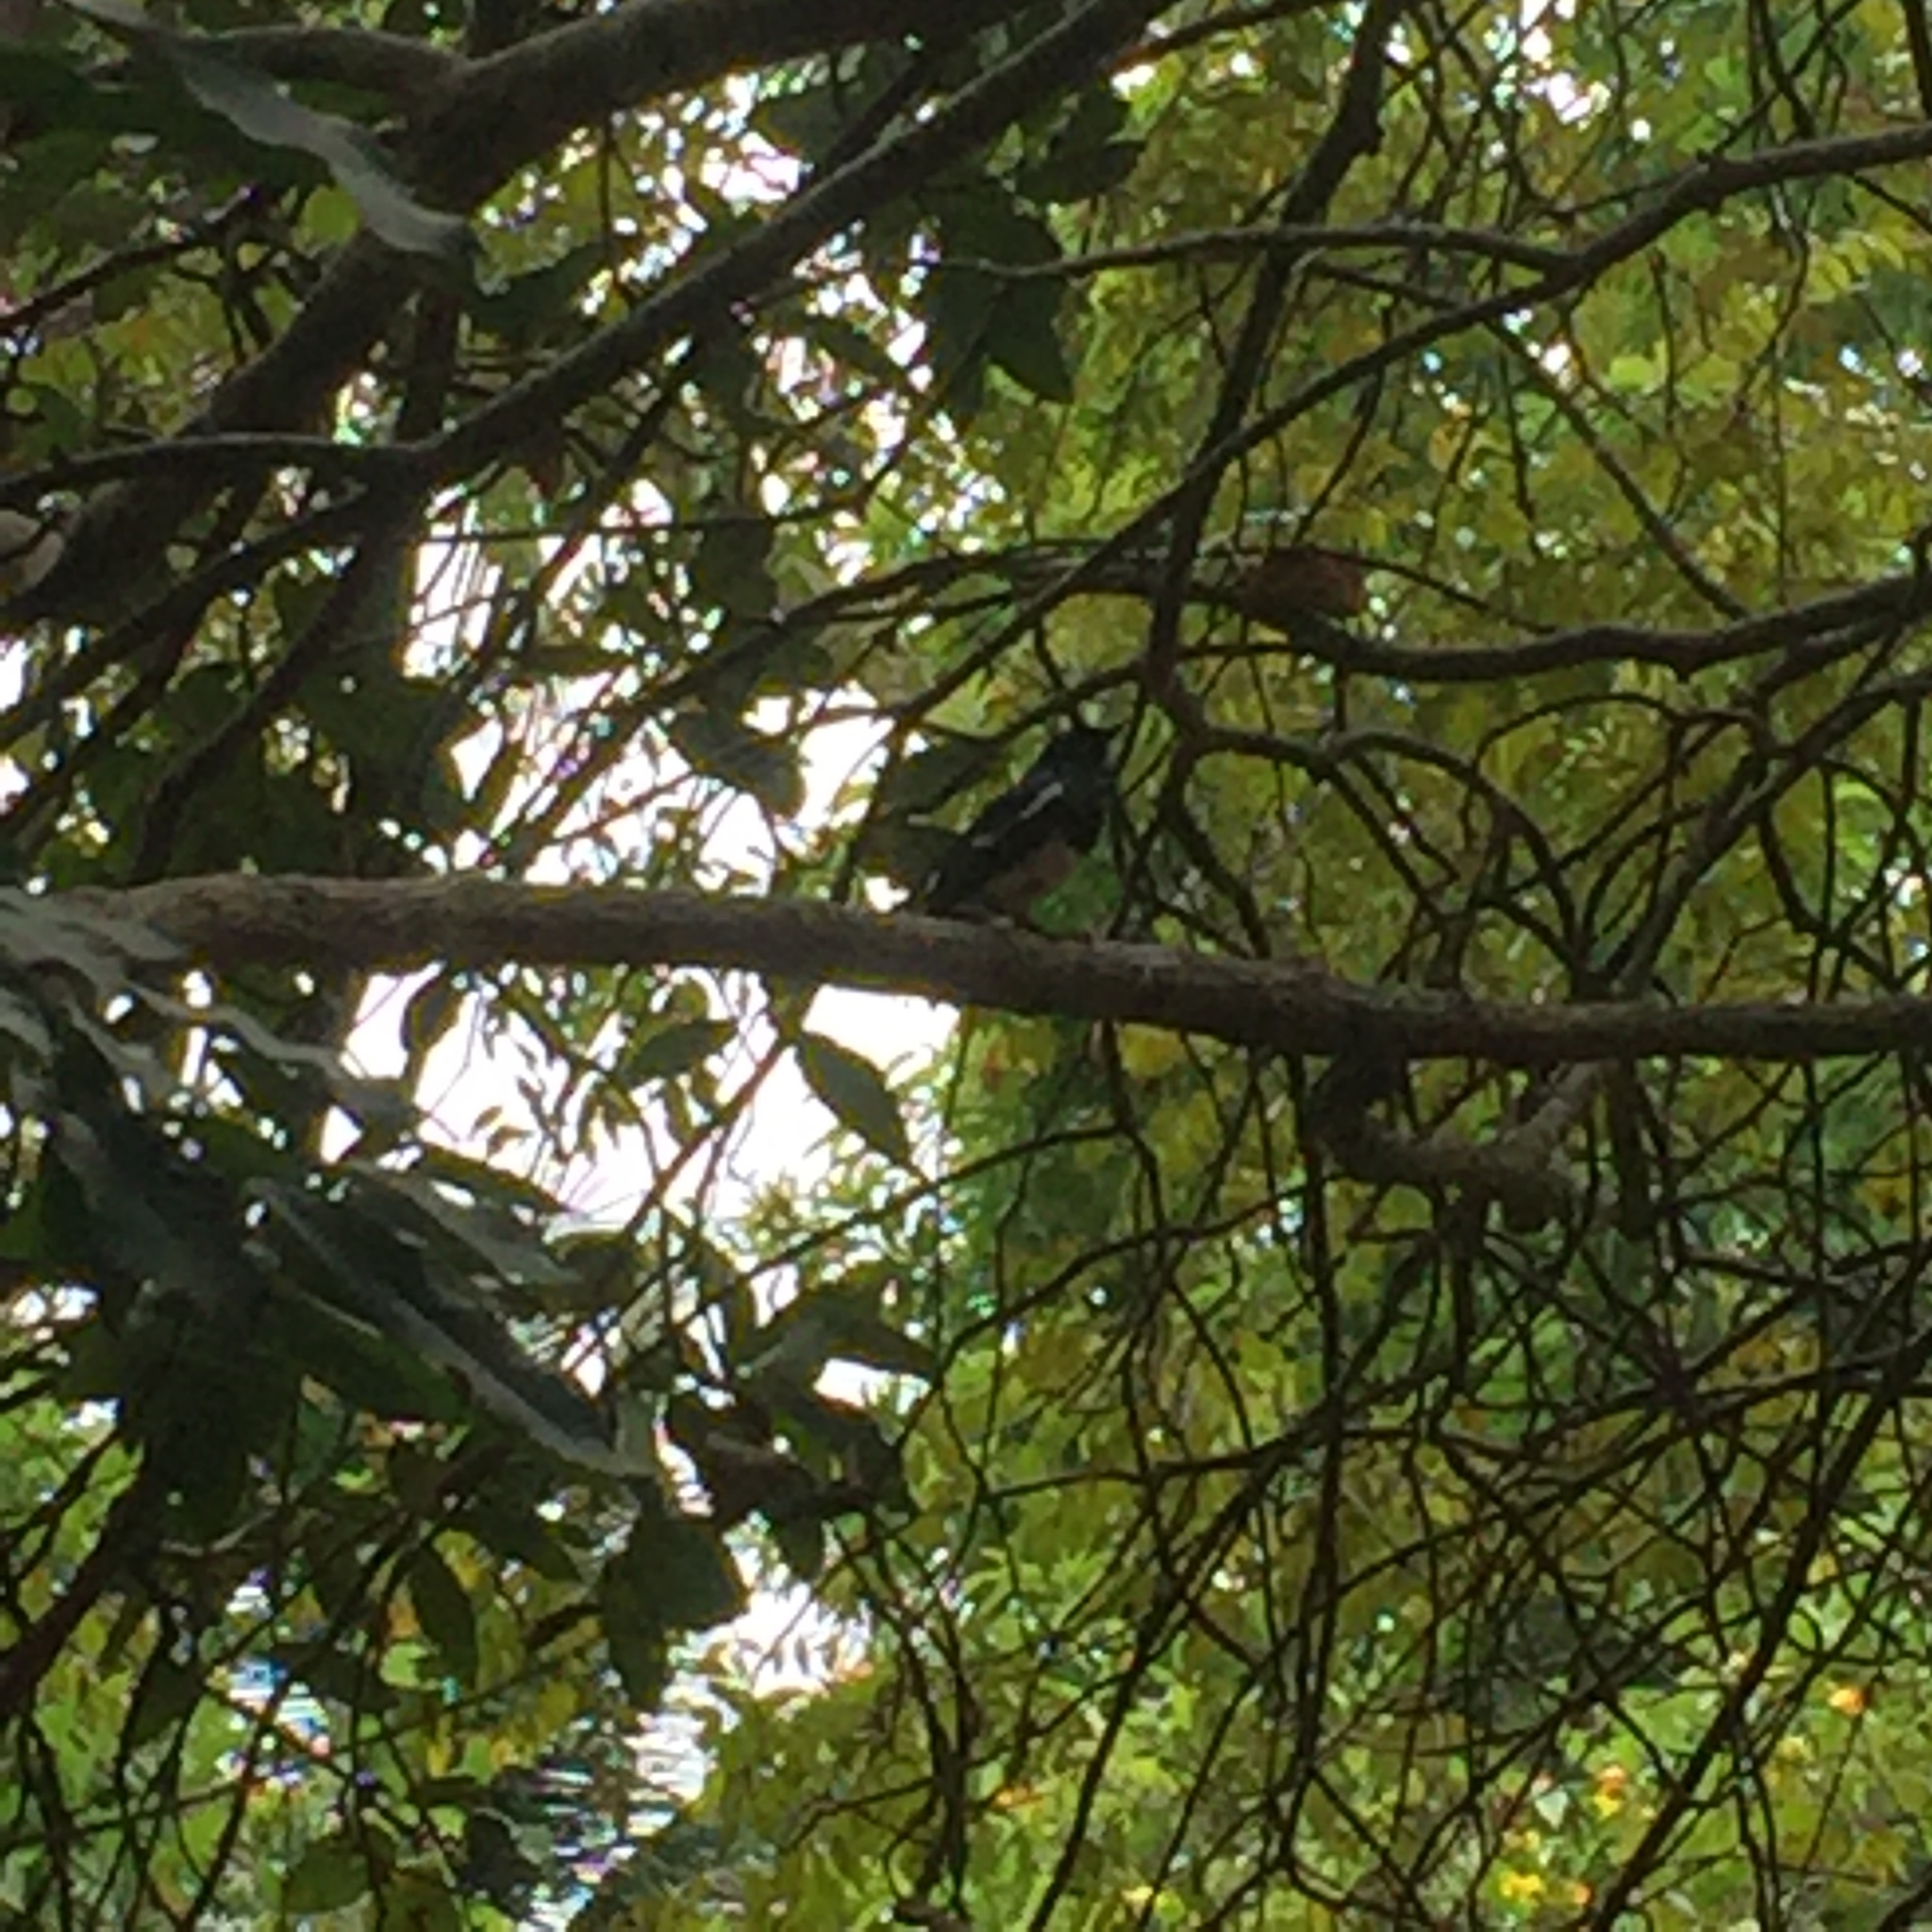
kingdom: Animalia
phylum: Chordata
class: Aves
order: Passeriformes
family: Muscicapidae
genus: Copsychus
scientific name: Copsychus saularis
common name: Oriental magpie-robin
